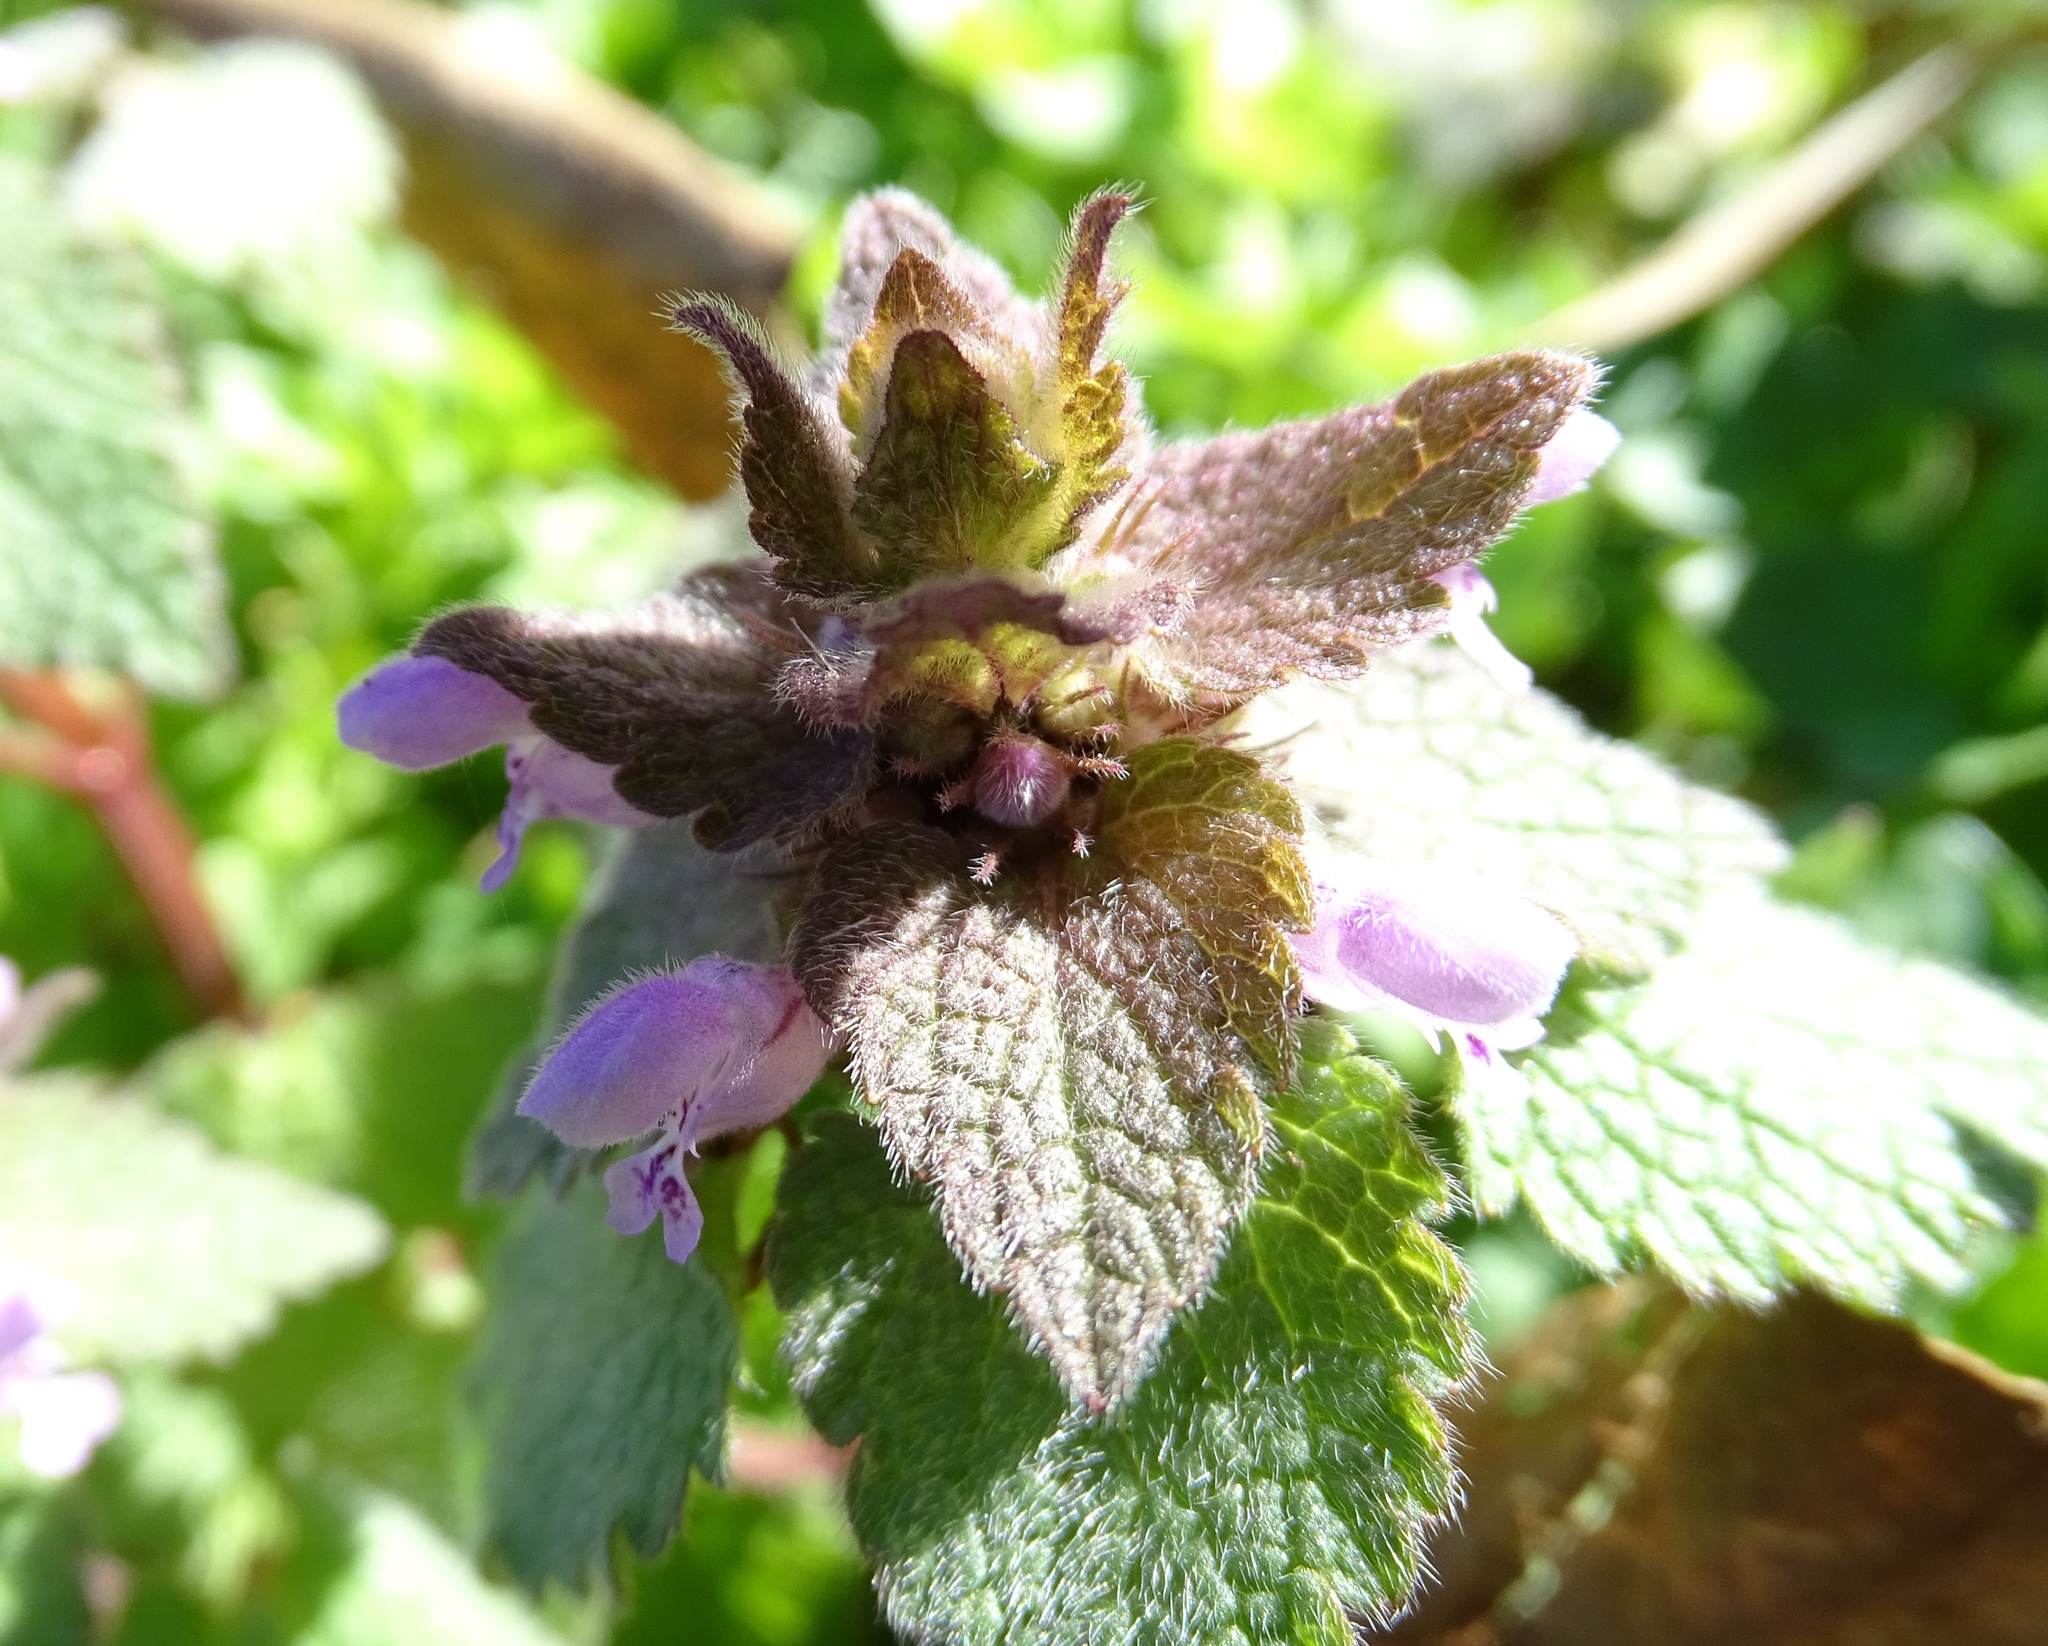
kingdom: Plantae
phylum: Tracheophyta
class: Magnoliopsida
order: Lamiales
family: Lamiaceae
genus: Lamium
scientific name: Lamium purpureum
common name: Red dead-nettle
